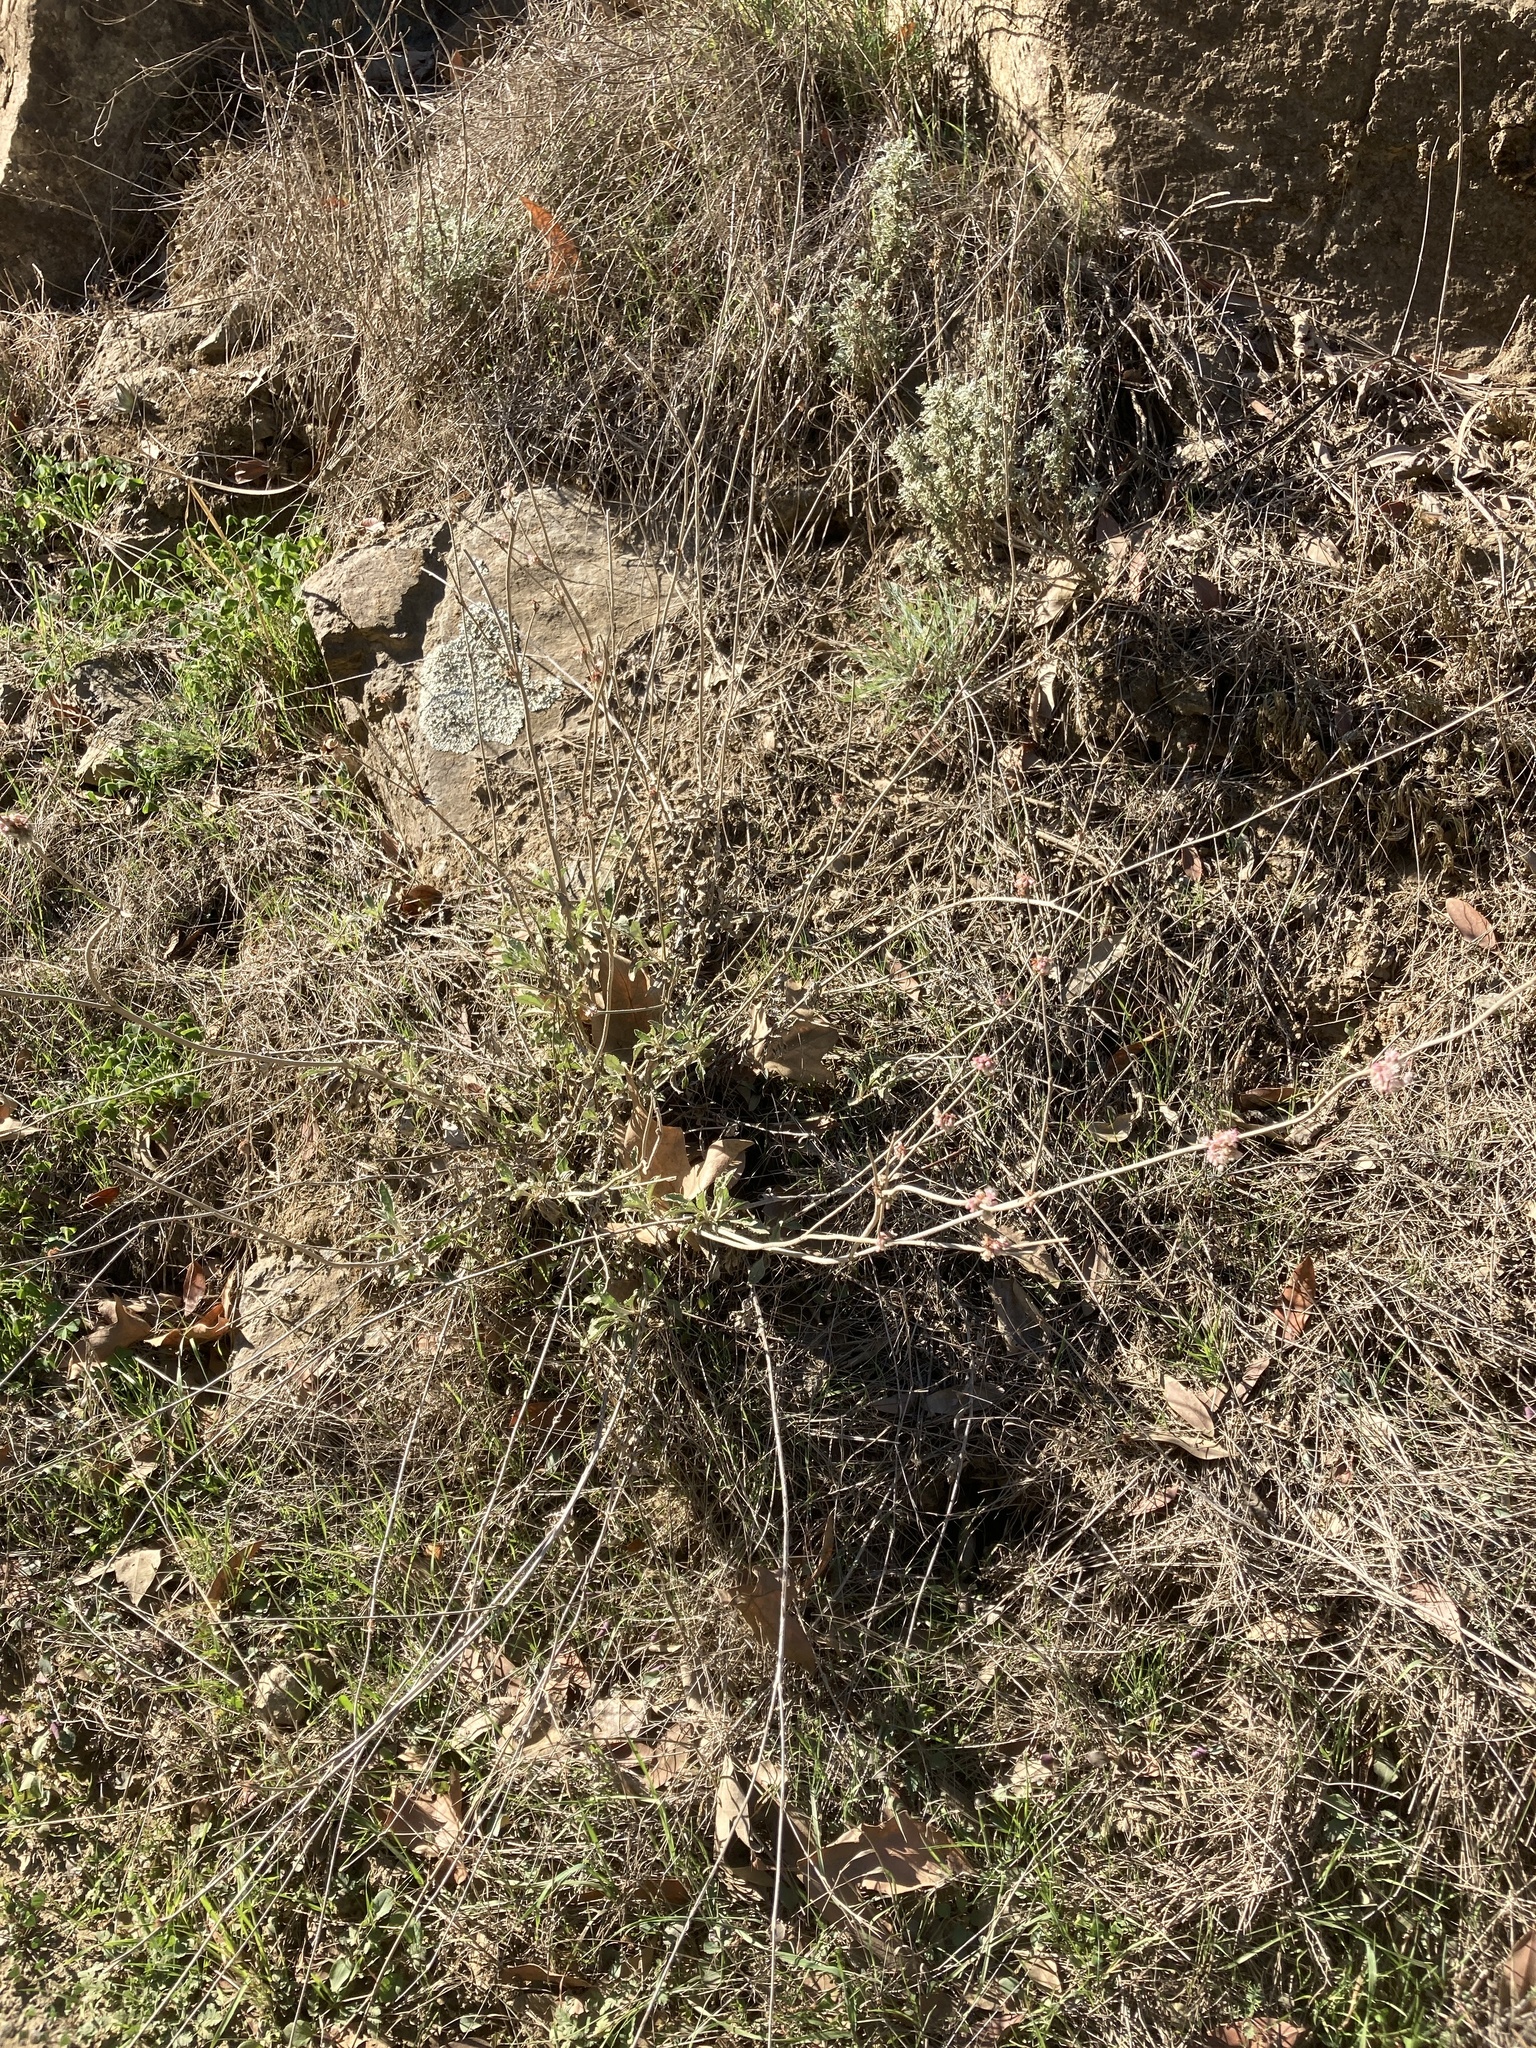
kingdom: Plantae
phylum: Tracheophyta
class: Magnoliopsida
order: Caryophyllales
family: Polygonaceae
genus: Eriogonum
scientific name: Eriogonum elongatum
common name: Long-stem wild buckwheat
